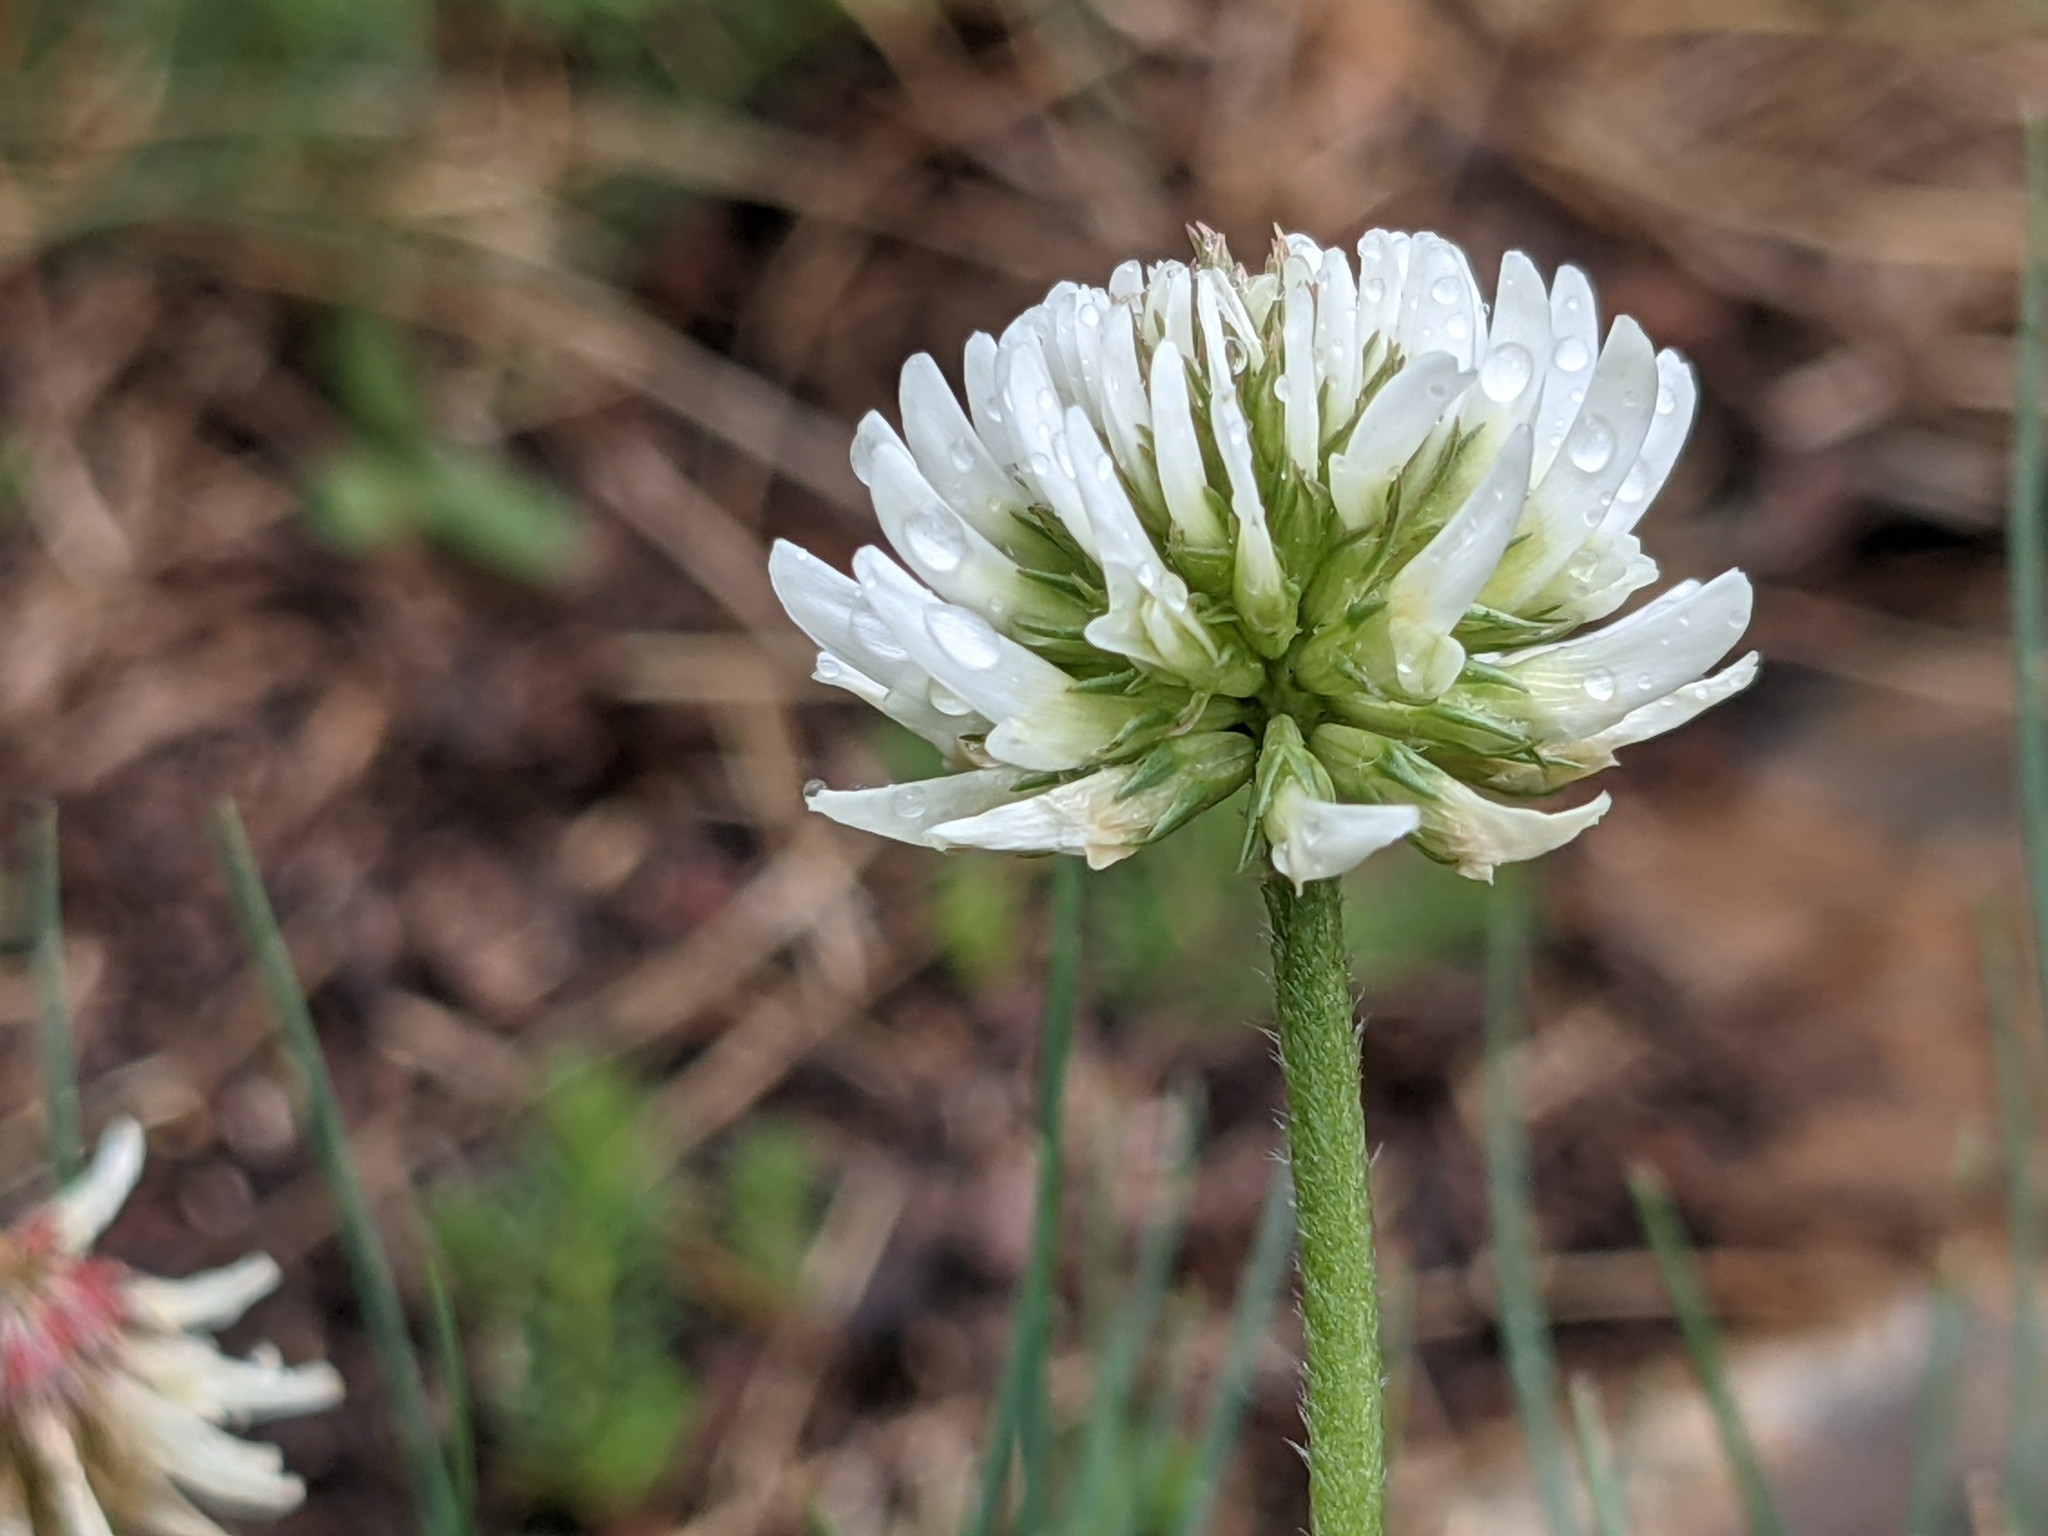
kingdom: Plantae
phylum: Tracheophyta
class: Magnoliopsida
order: Fabales
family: Fabaceae
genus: Trifolium
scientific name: Trifolium montanum
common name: Mountain clover
